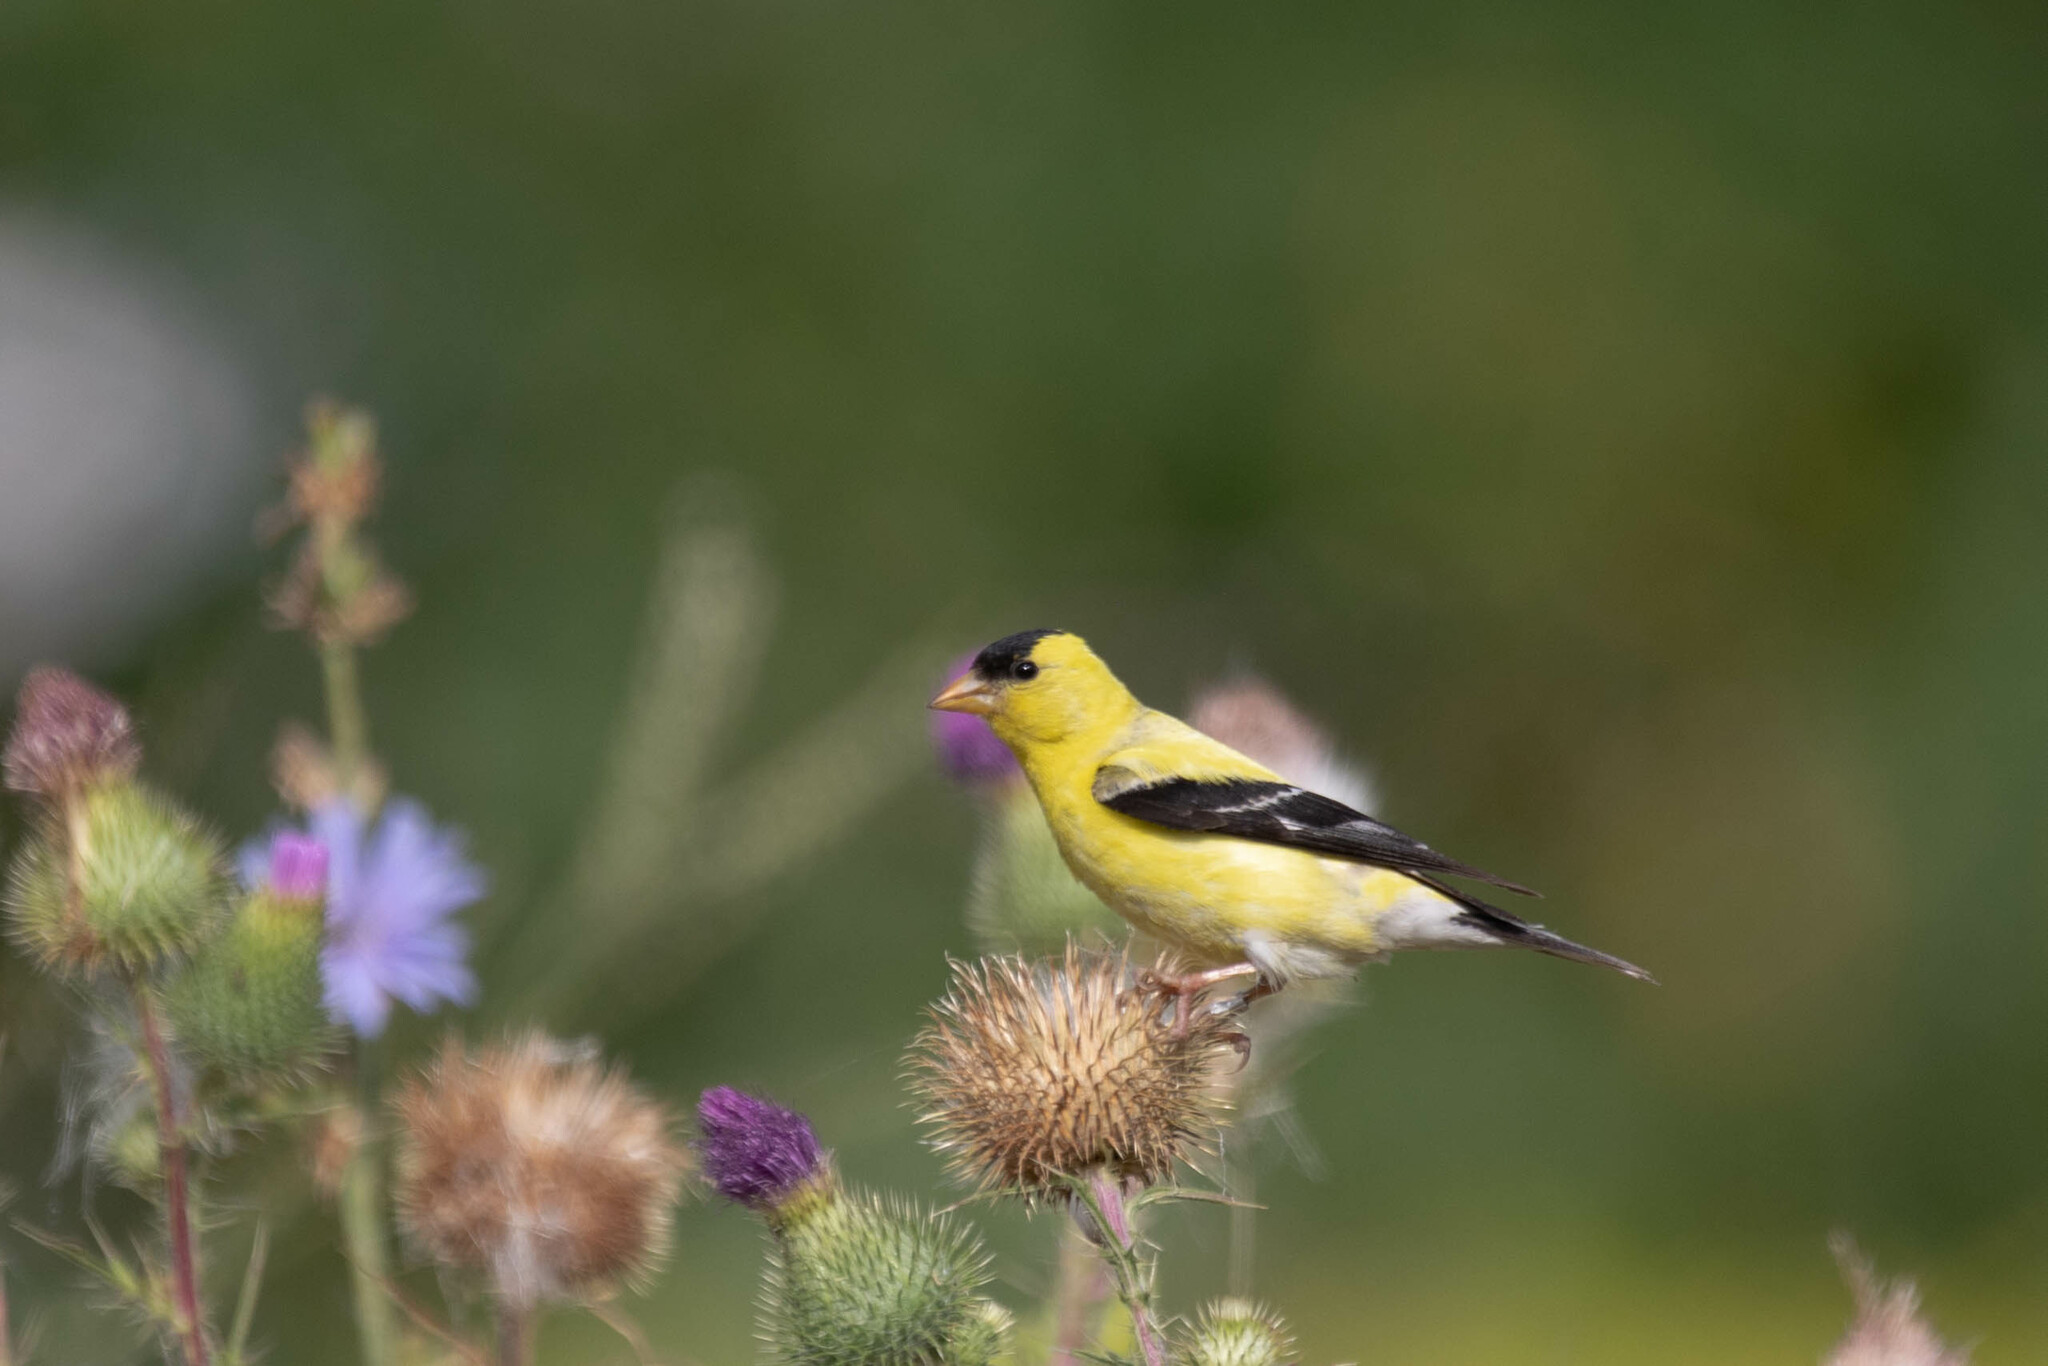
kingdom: Animalia
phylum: Chordata
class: Aves
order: Passeriformes
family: Fringillidae
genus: Spinus
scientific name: Spinus tristis
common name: American goldfinch
